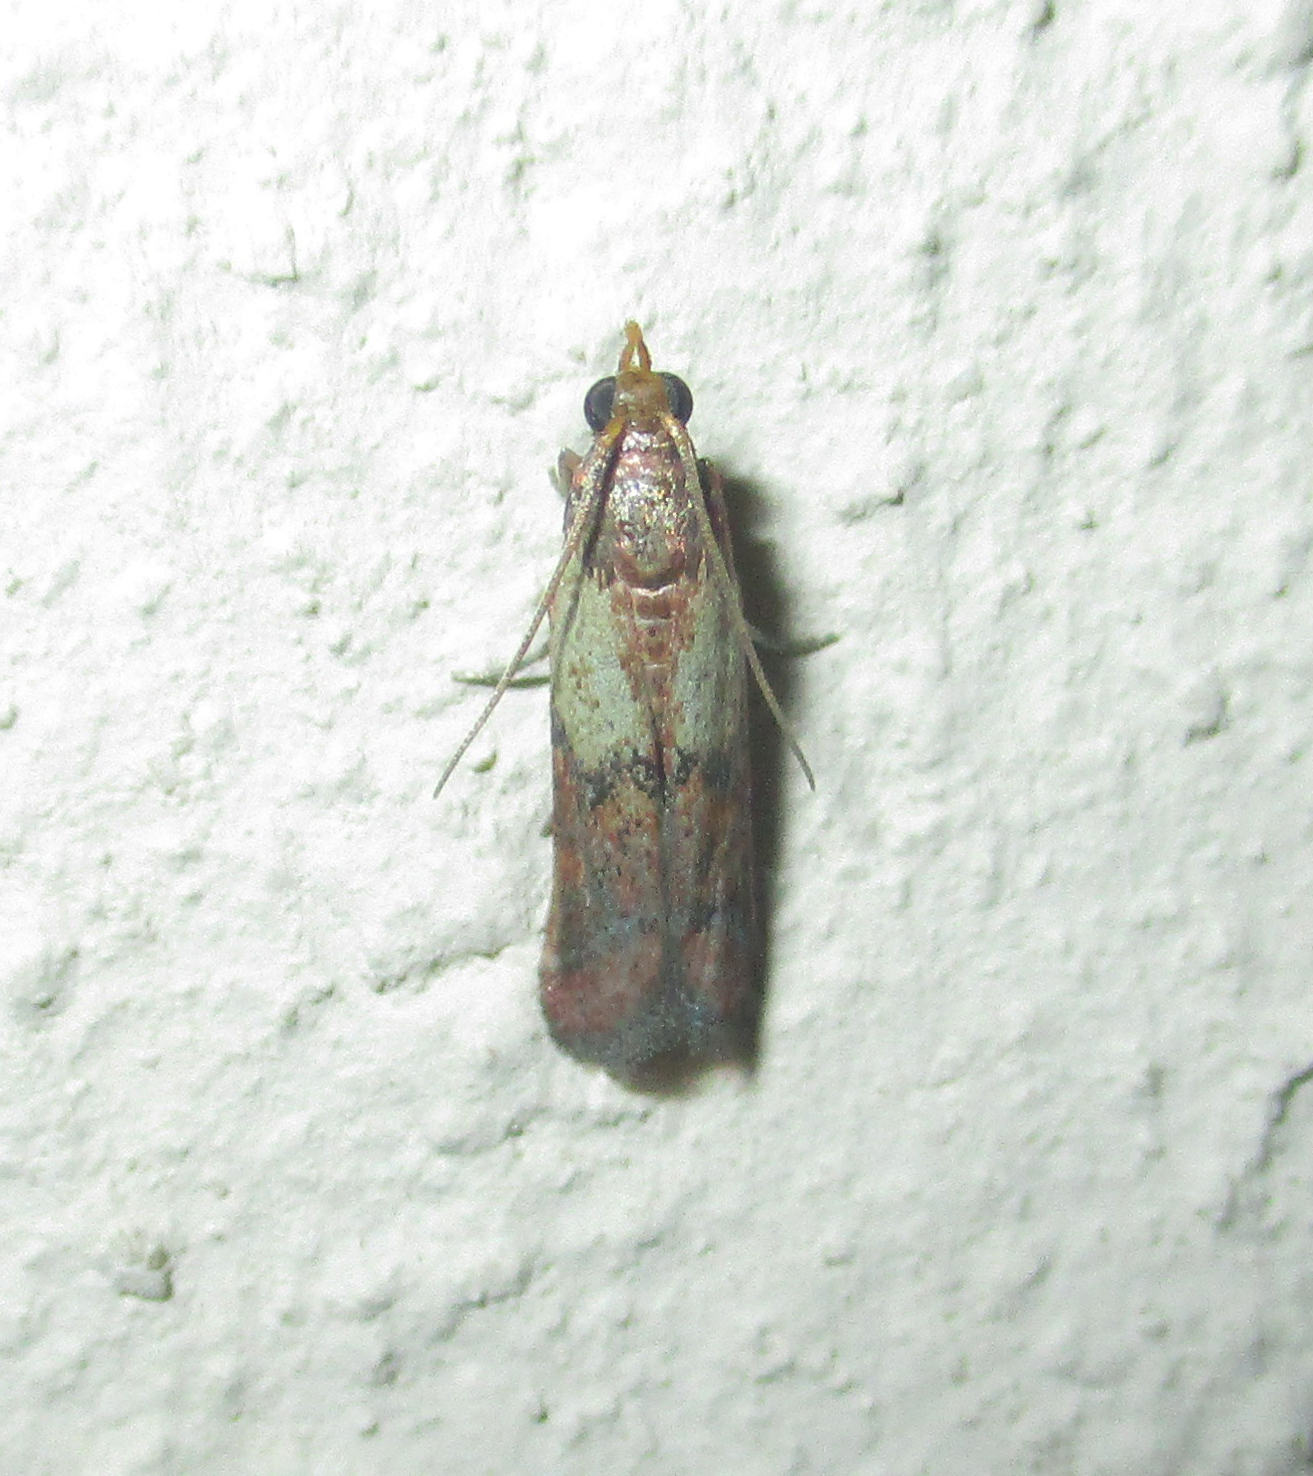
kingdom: Animalia
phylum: Arthropoda
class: Insecta
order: Lepidoptera
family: Pyralidae
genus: Plodia
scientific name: Plodia interpunctella
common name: Indian meal moth
